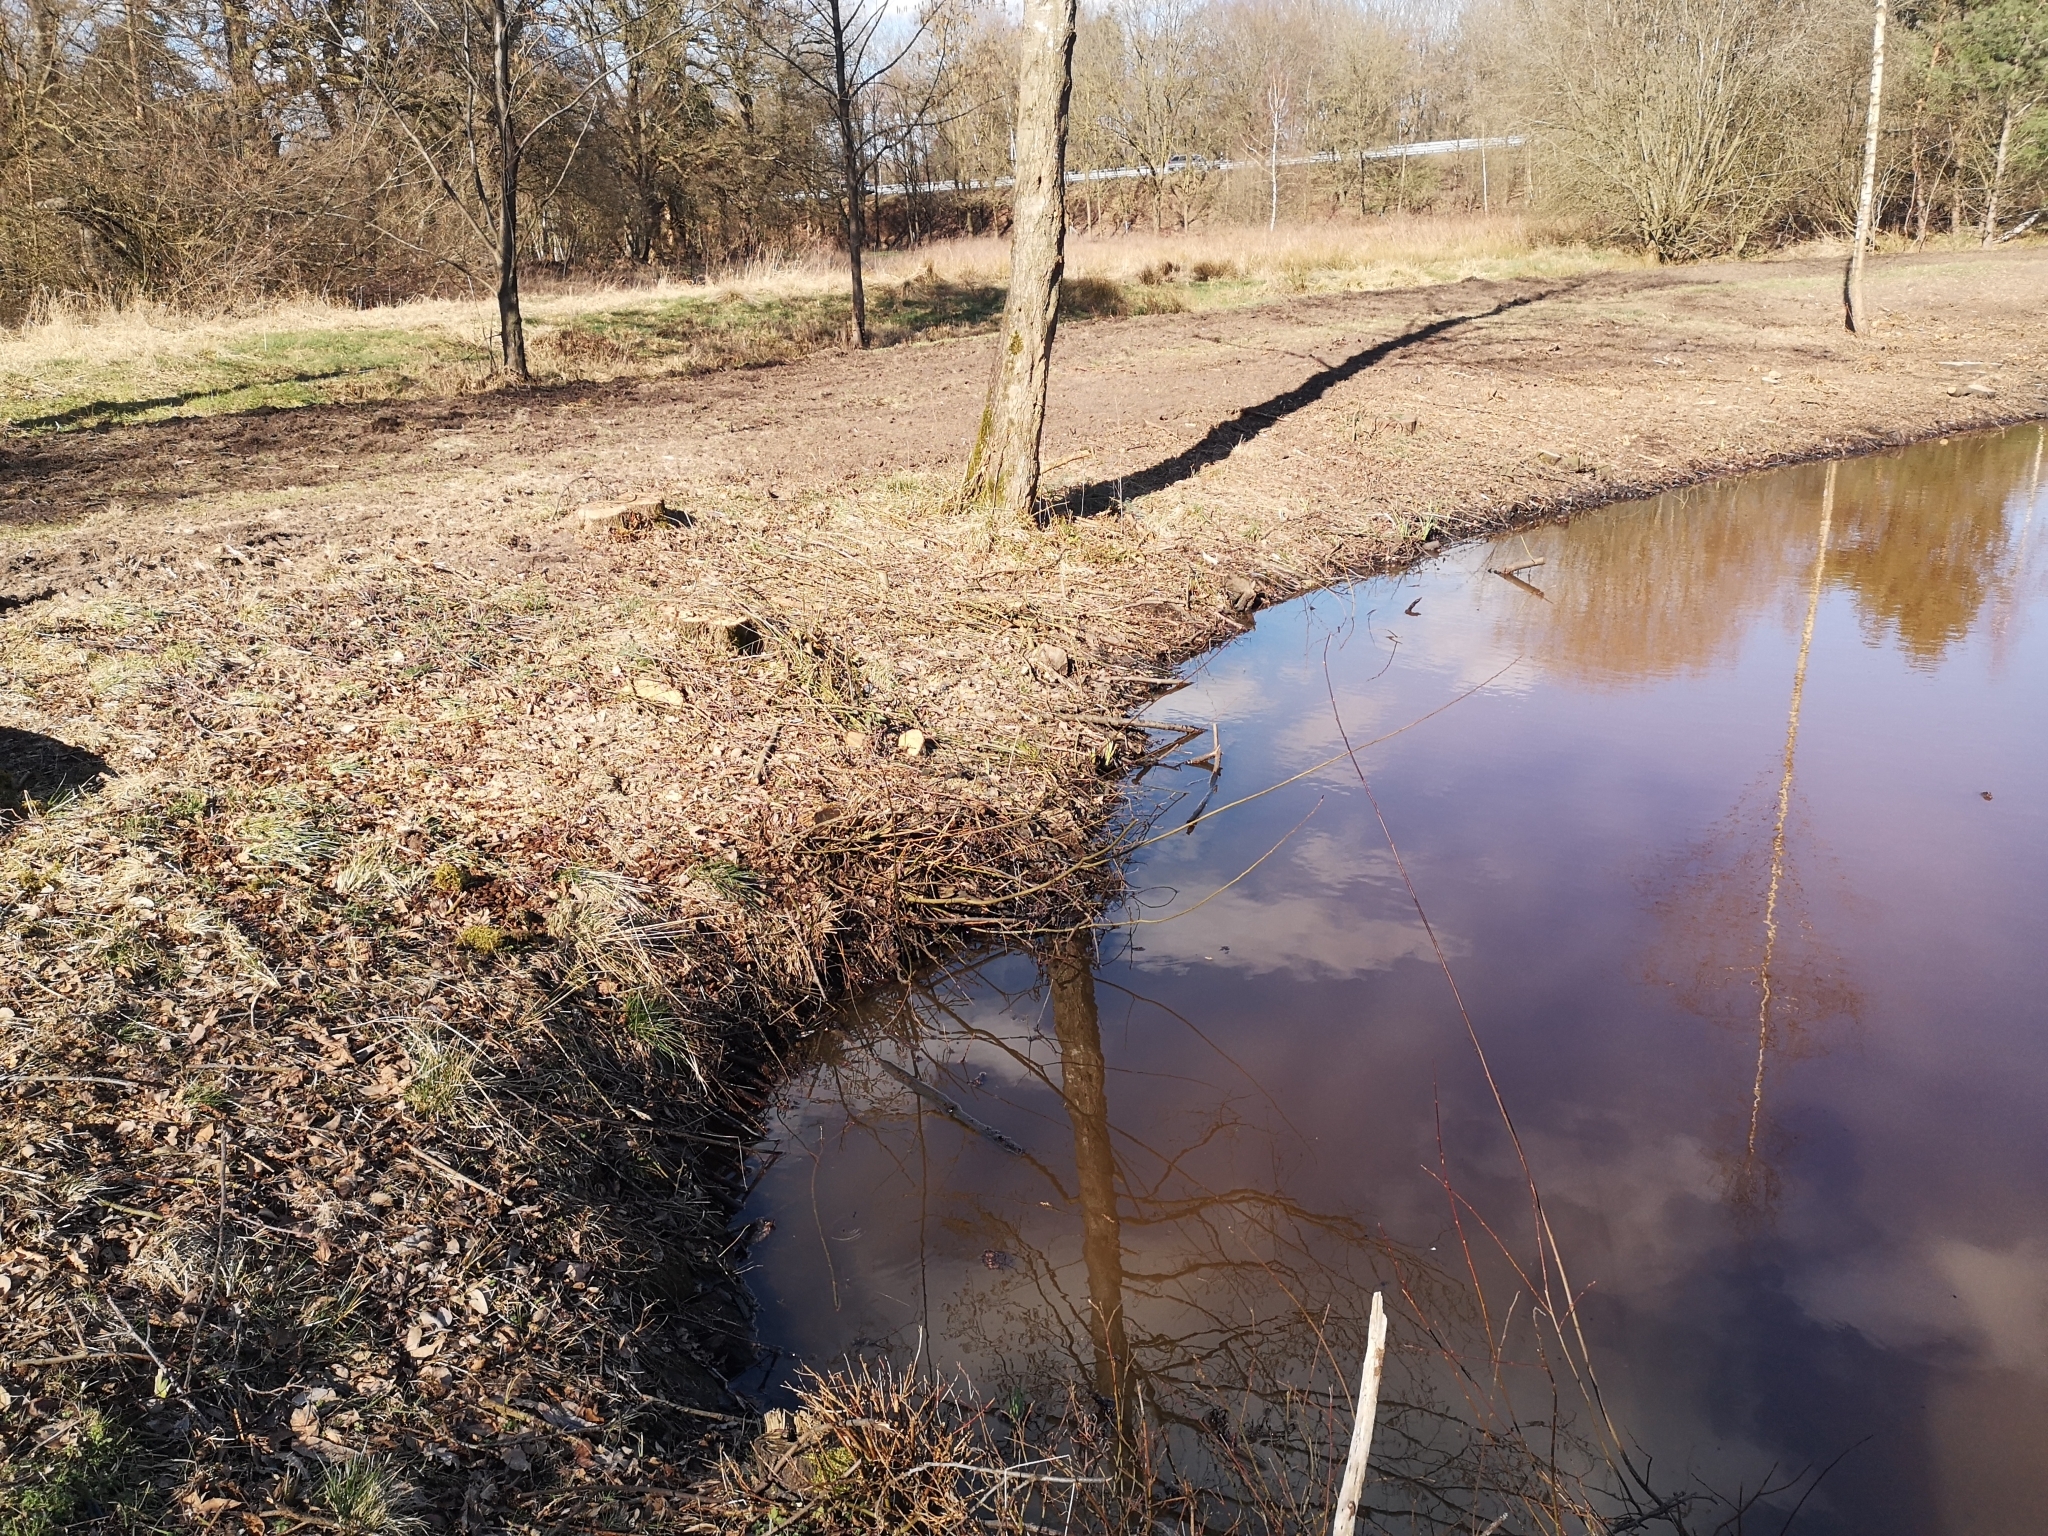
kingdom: Animalia
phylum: Mollusca
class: Bivalvia
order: Unionida
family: Unionidae
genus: Anodonta
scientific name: Anodonta anatina
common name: Duck mussel
